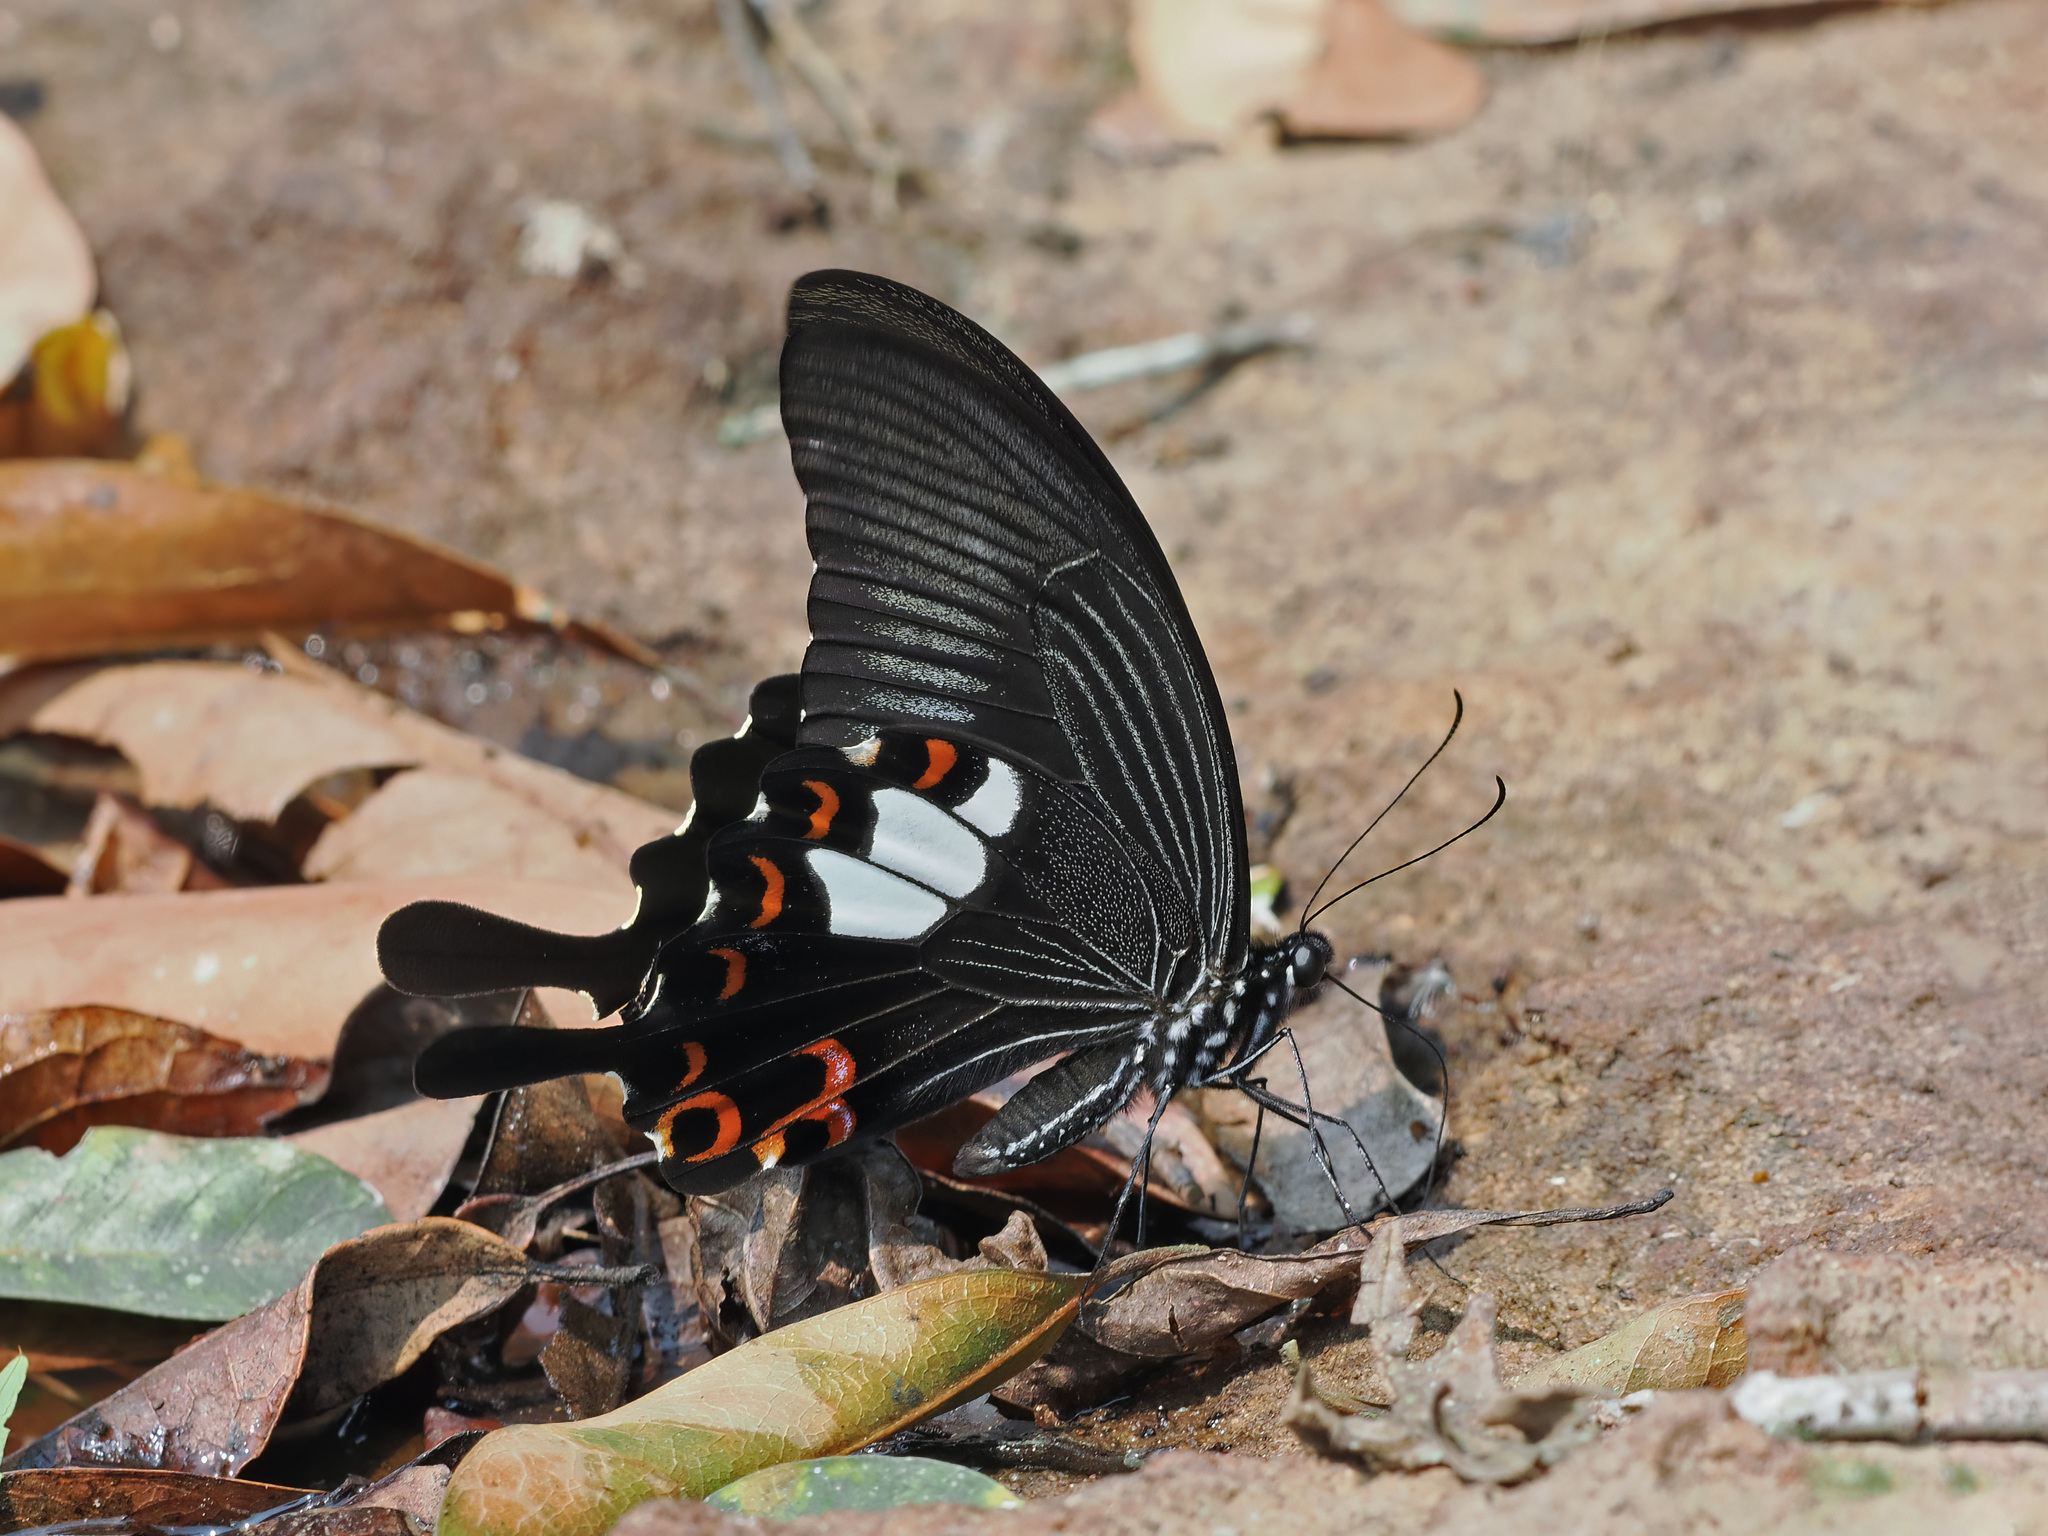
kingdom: Animalia
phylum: Arthropoda
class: Insecta
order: Lepidoptera
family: Papilionidae
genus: Papilio
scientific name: Papilio helenus
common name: Red helen
